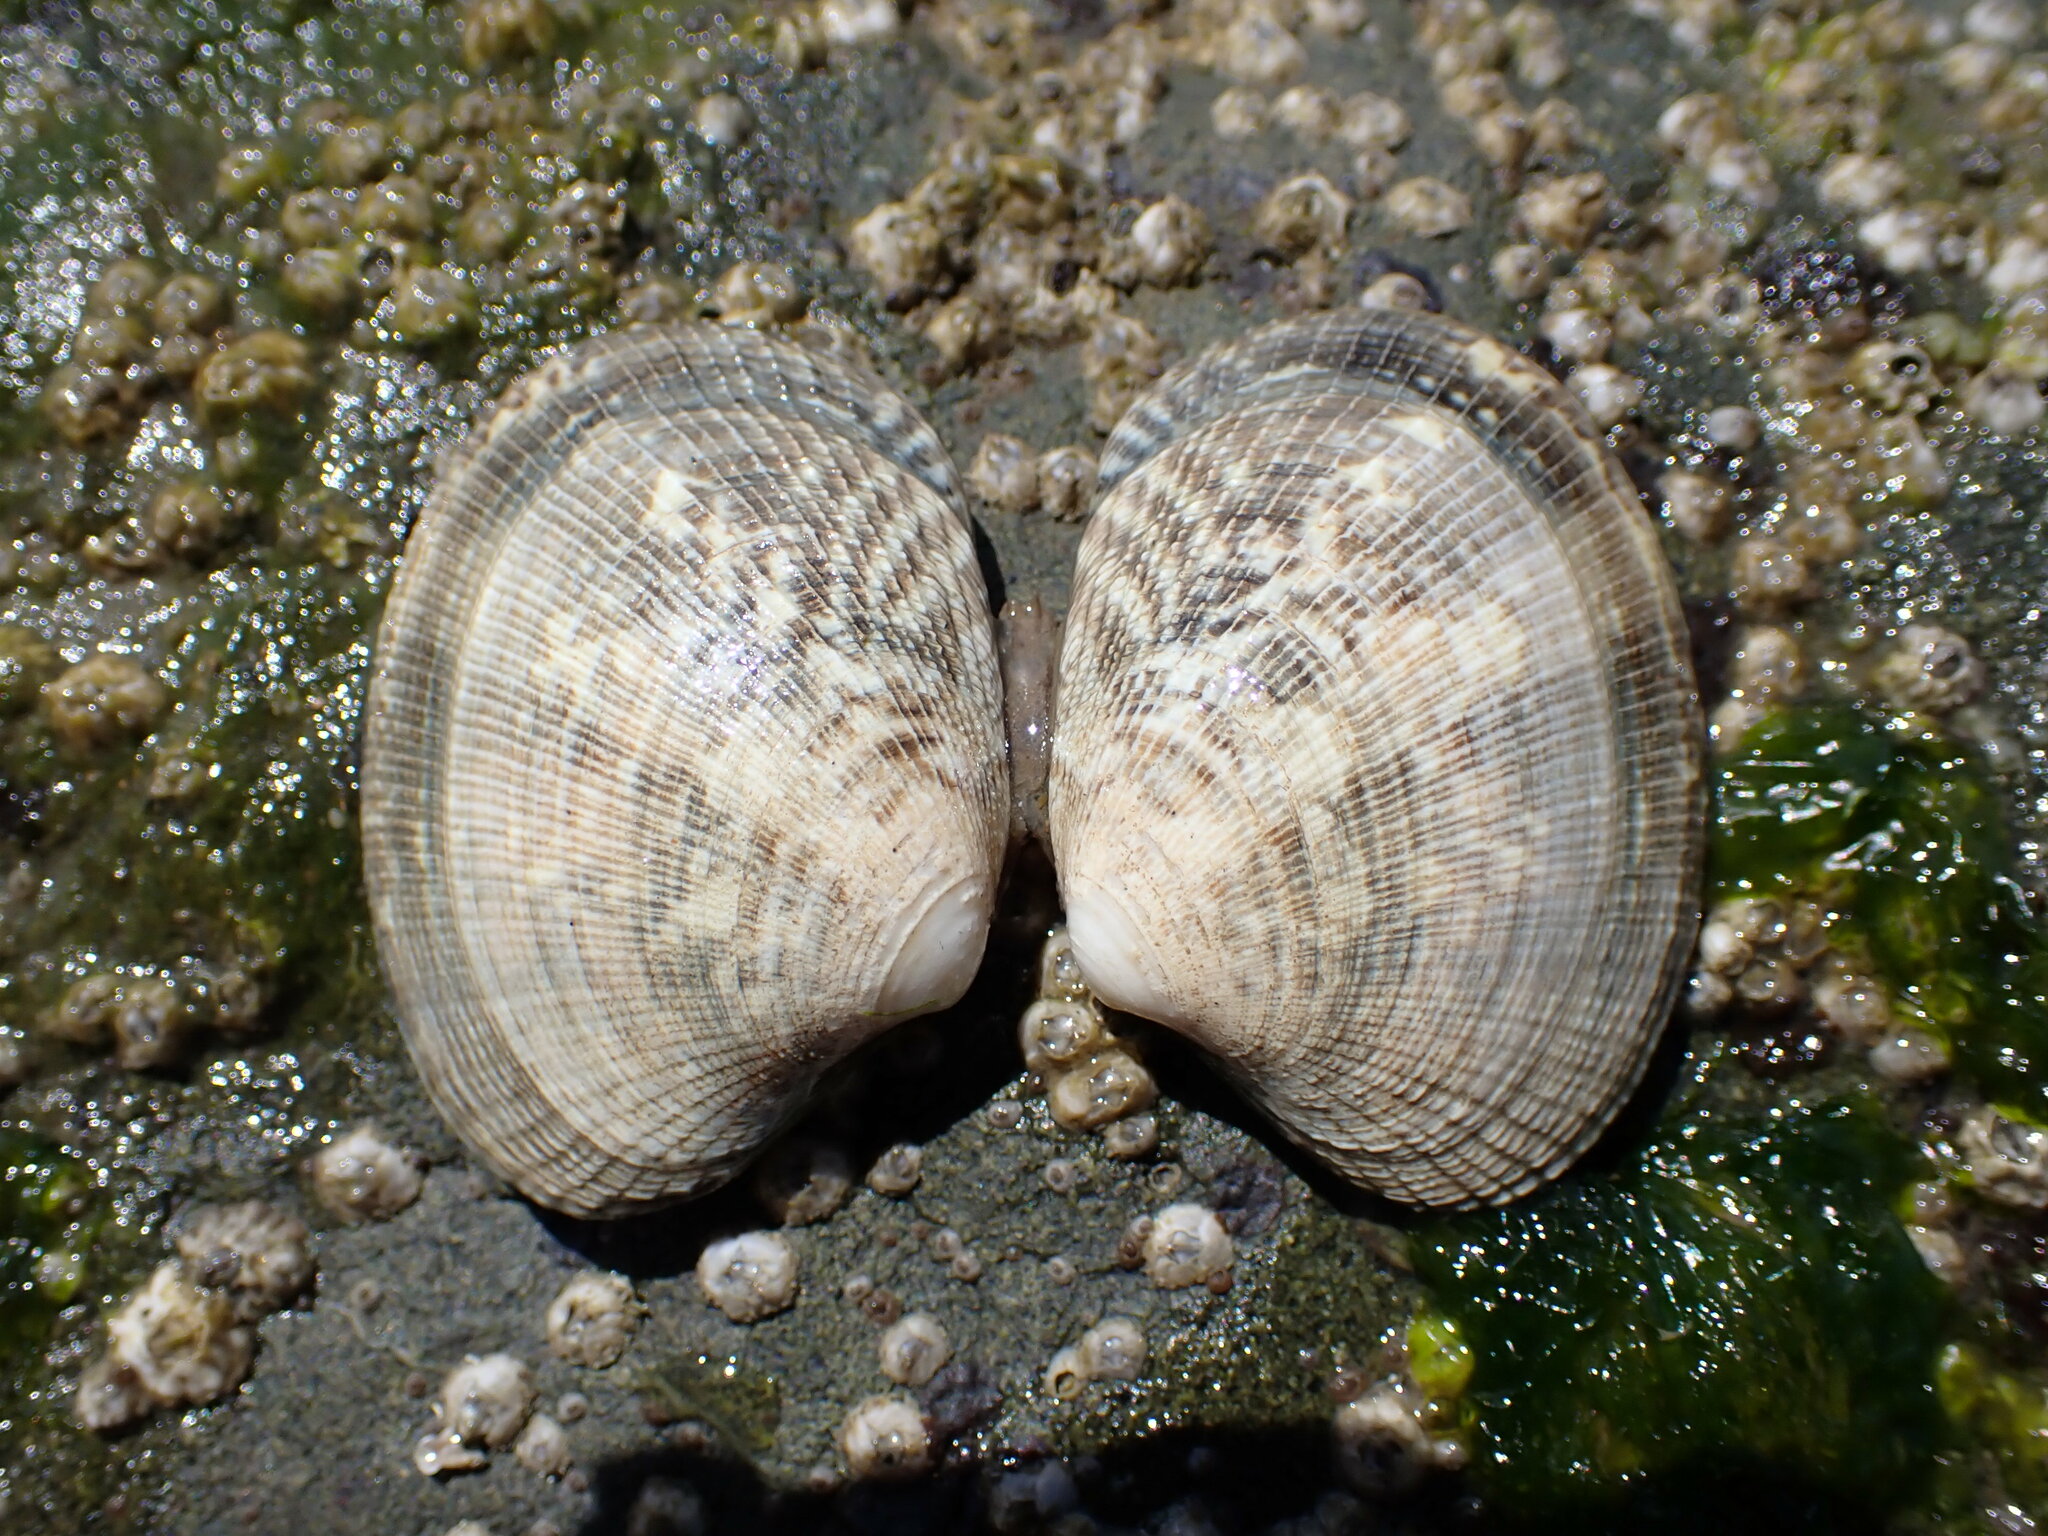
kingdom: Animalia
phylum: Mollusca
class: Bivalvia
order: Venerida
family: Veneridae
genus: Ruditapes
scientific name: Ruditapes philippinarum
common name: Manila clam
